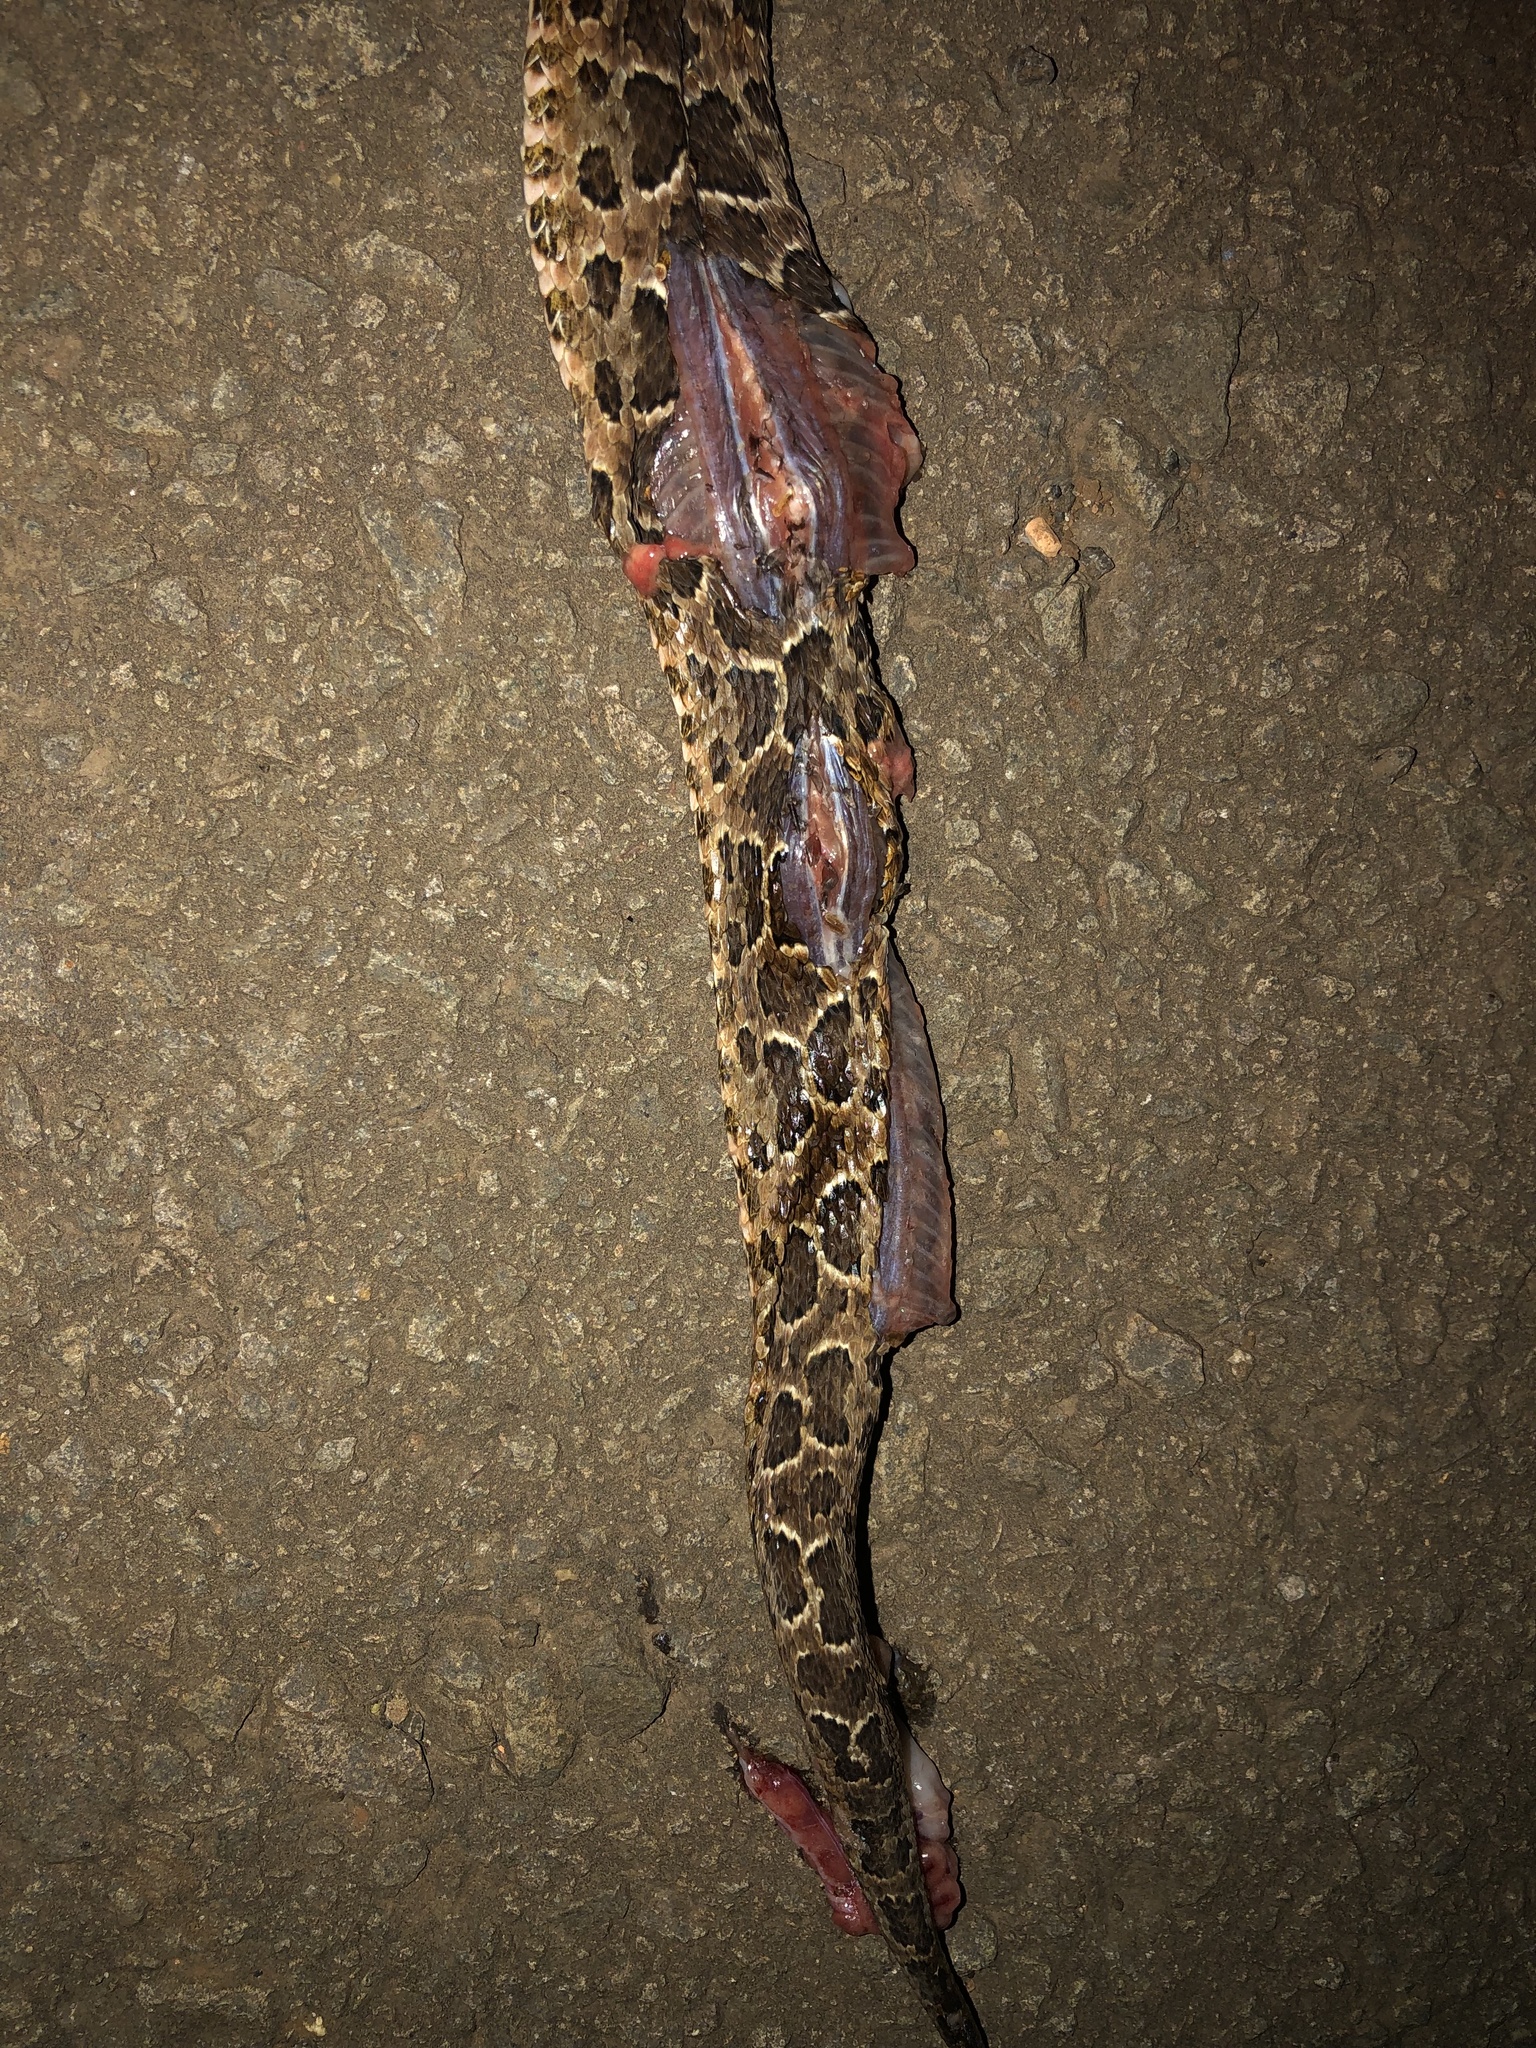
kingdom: Animalia
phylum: Chordata
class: Squamata
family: Viperidae
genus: Bothrops
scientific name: Bothrops neuwiedi
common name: Jararaca pintada
